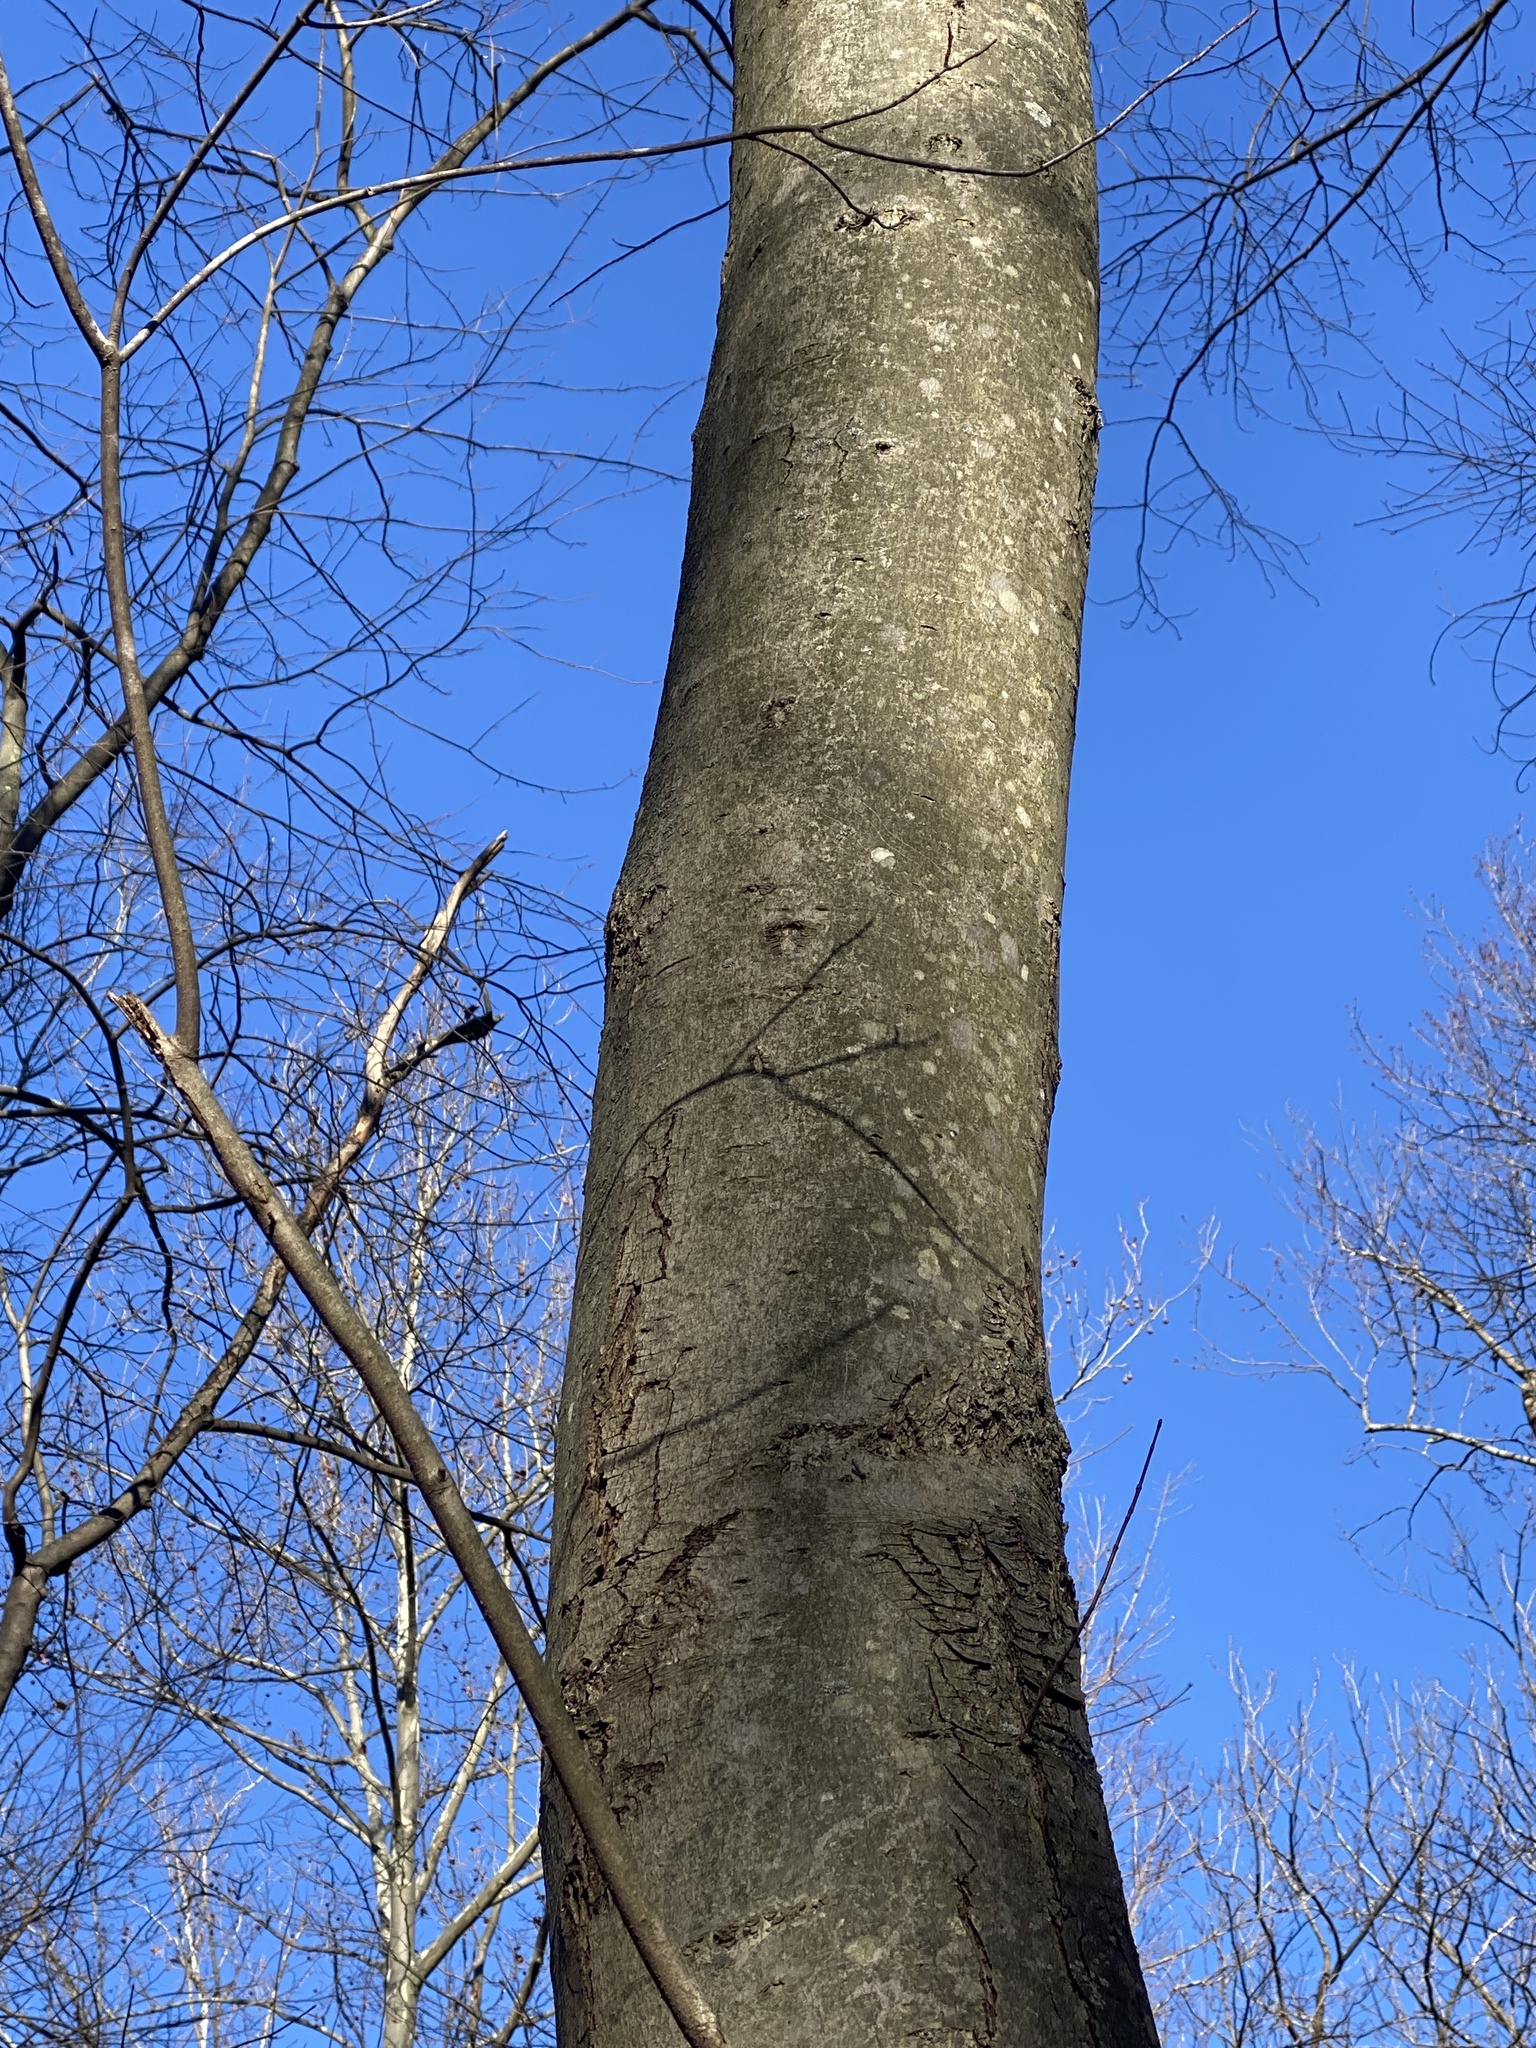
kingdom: Plantae
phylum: Tracheophyta
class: Magnoliopsida
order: Sapindales
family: Sapindaceae
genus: Acer
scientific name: Acer rubrum
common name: Red maple
